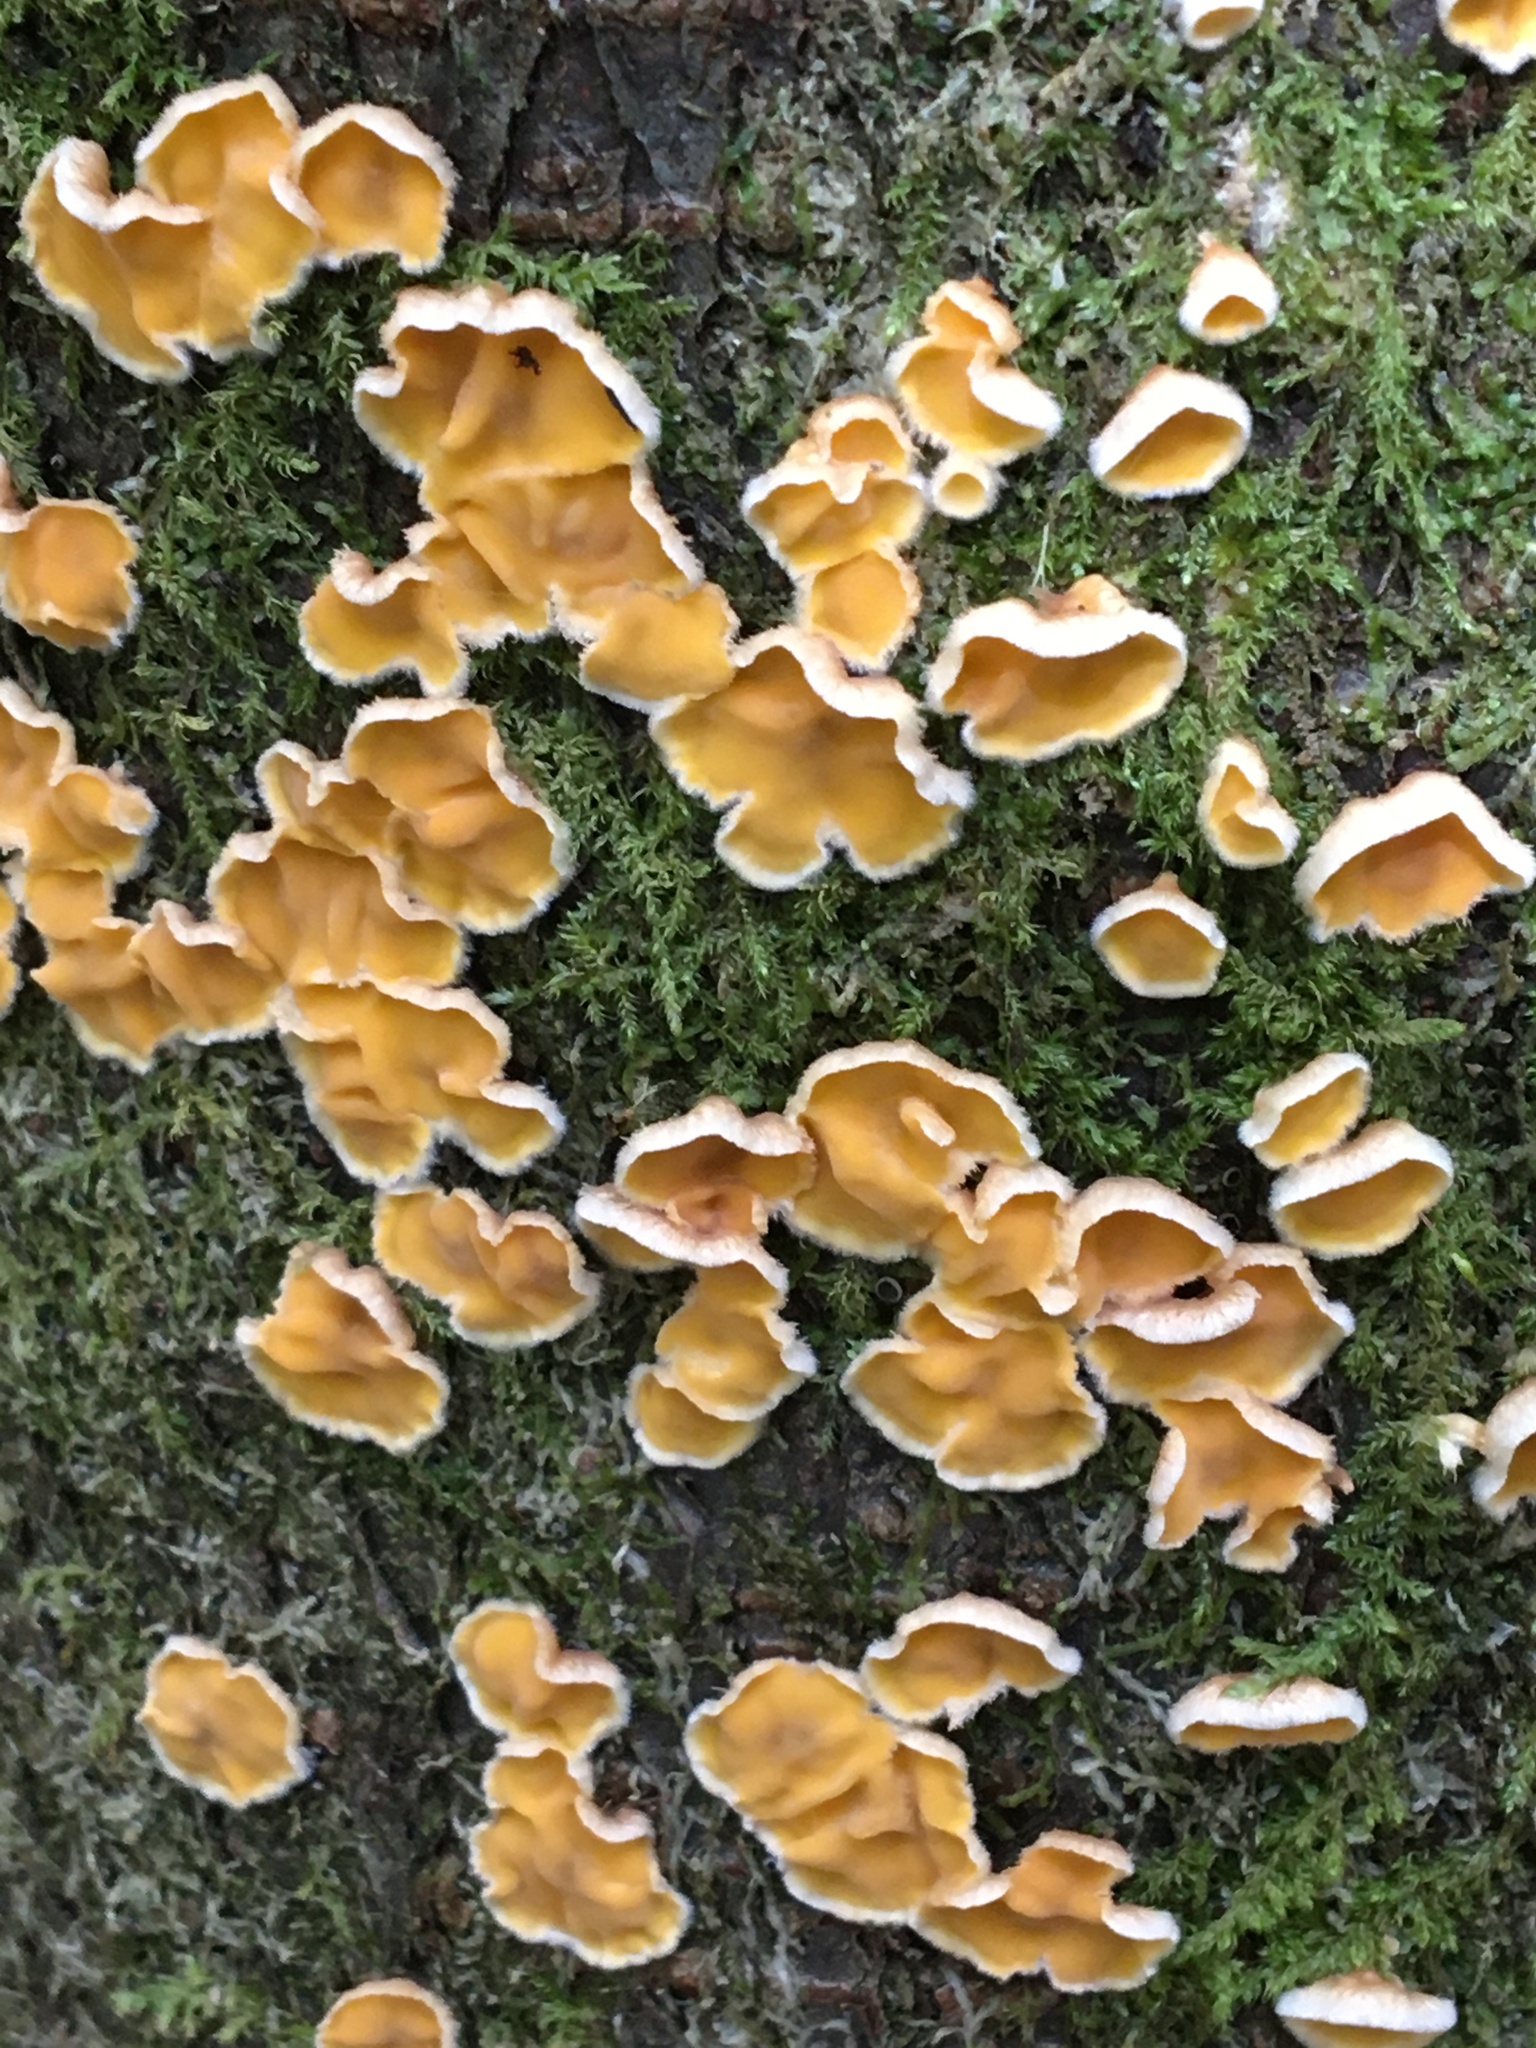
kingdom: Fungi
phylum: Basidiomycota
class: Agaricomycetes
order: Russulales
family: Stereaceae
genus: Stereodiscus
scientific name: Stereodiscus limonisporus
